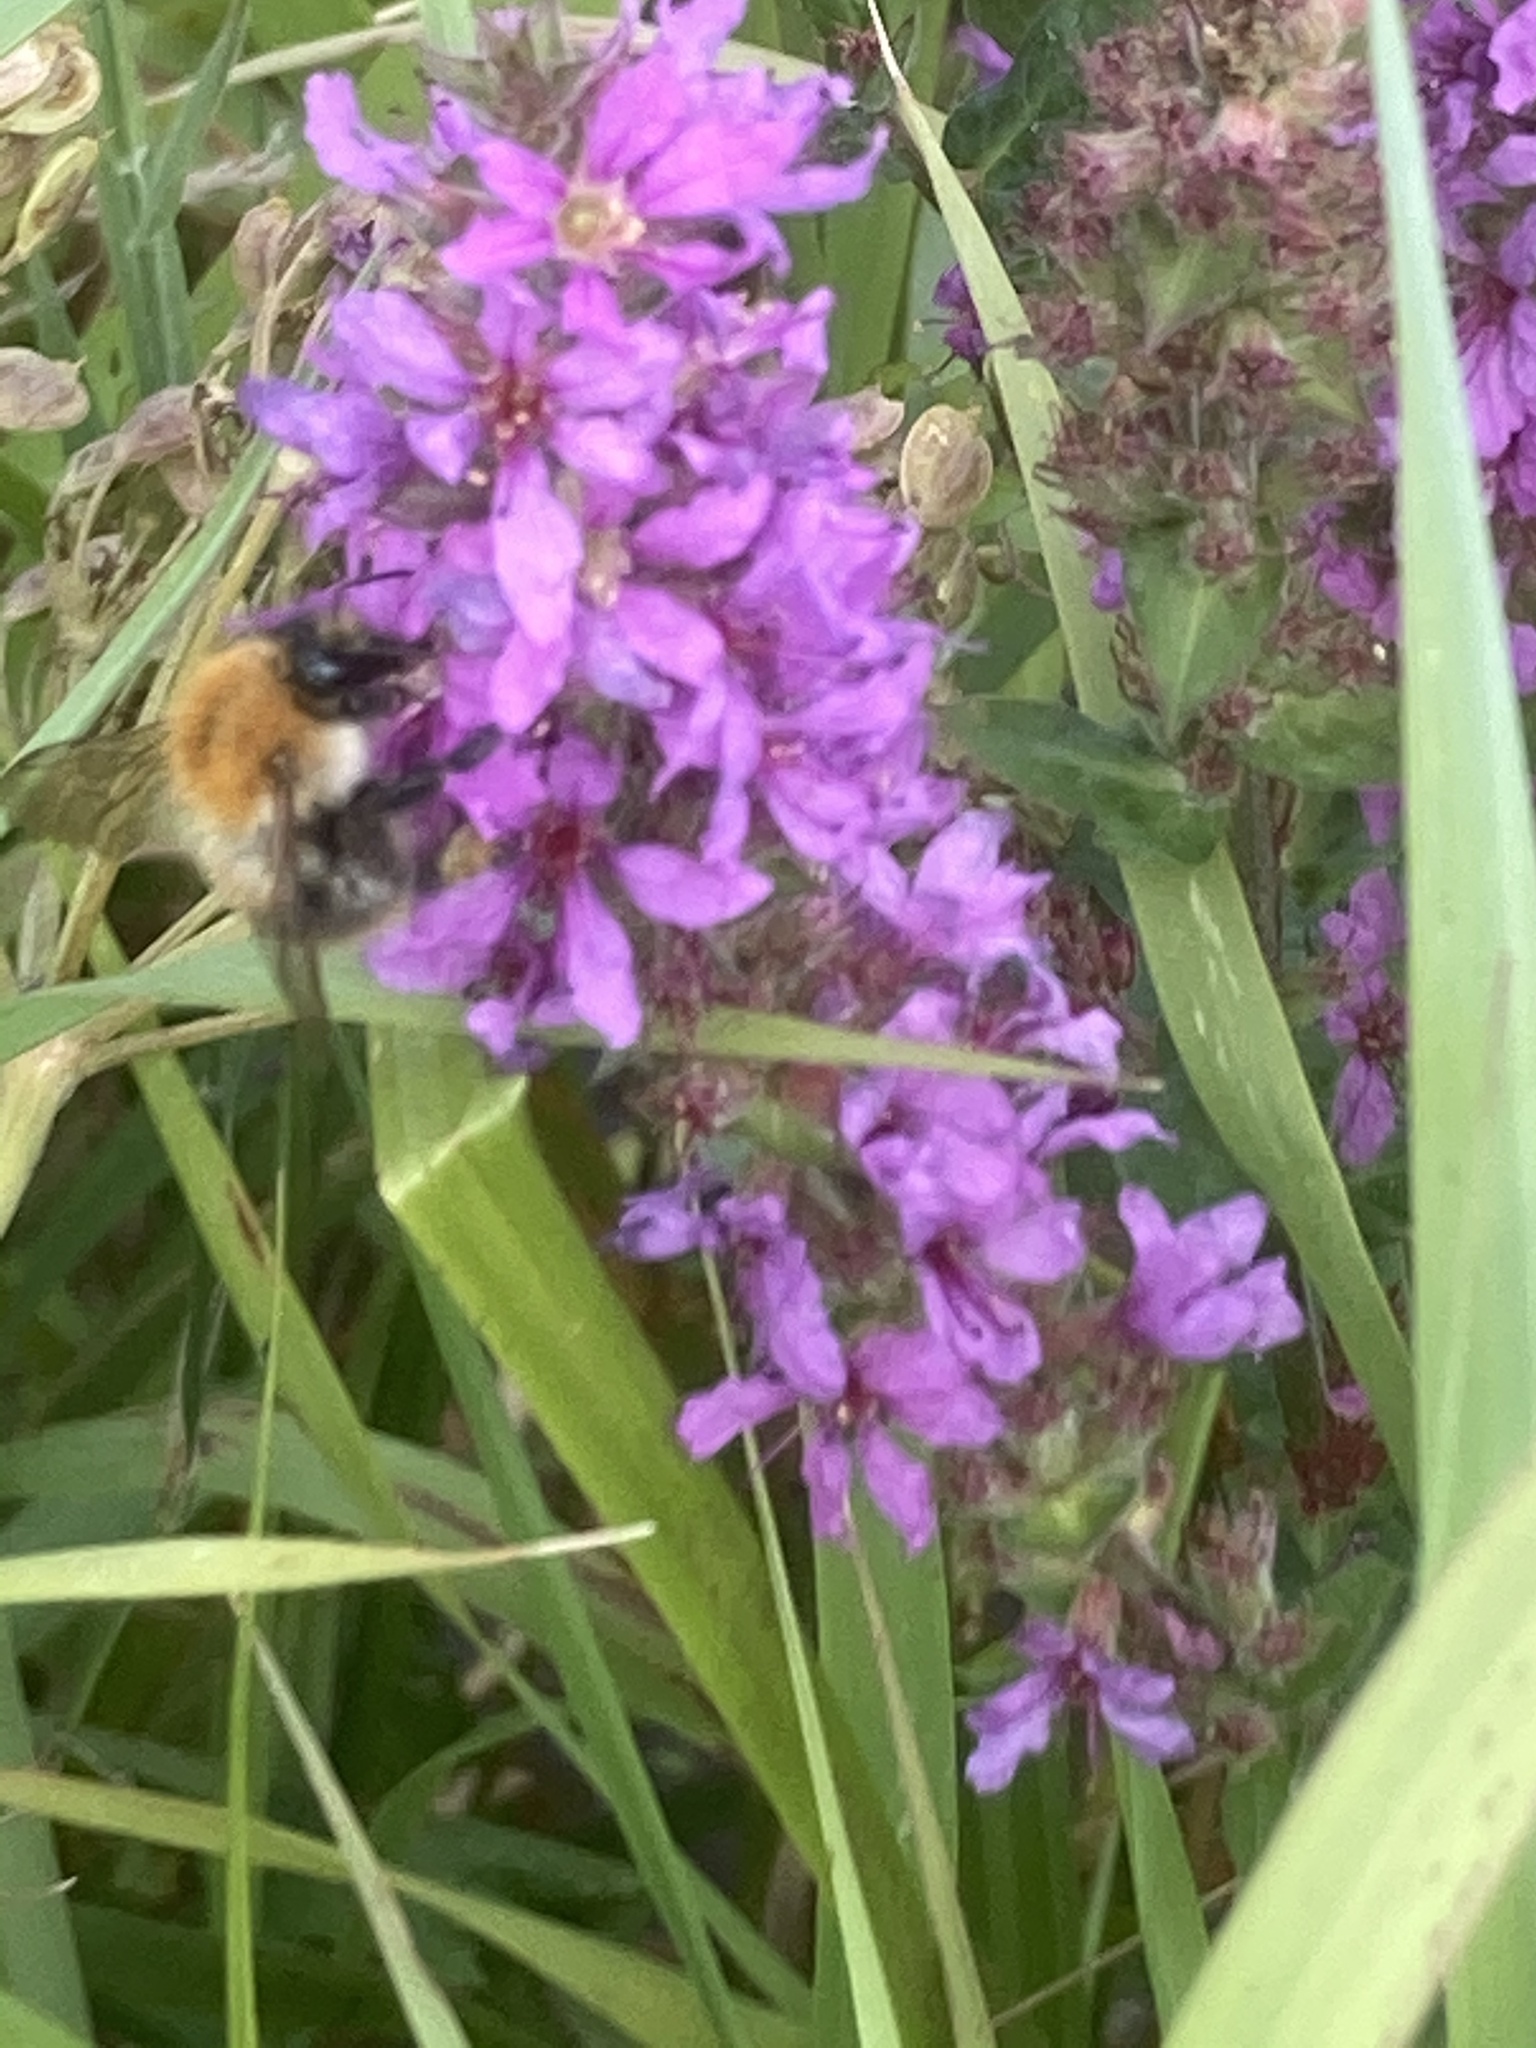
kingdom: Animalia
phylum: Arthropoda
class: Insecta
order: Hymenoptera
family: Apidae
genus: Bombus
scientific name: Bombus pascuorum
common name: Common carder bee
